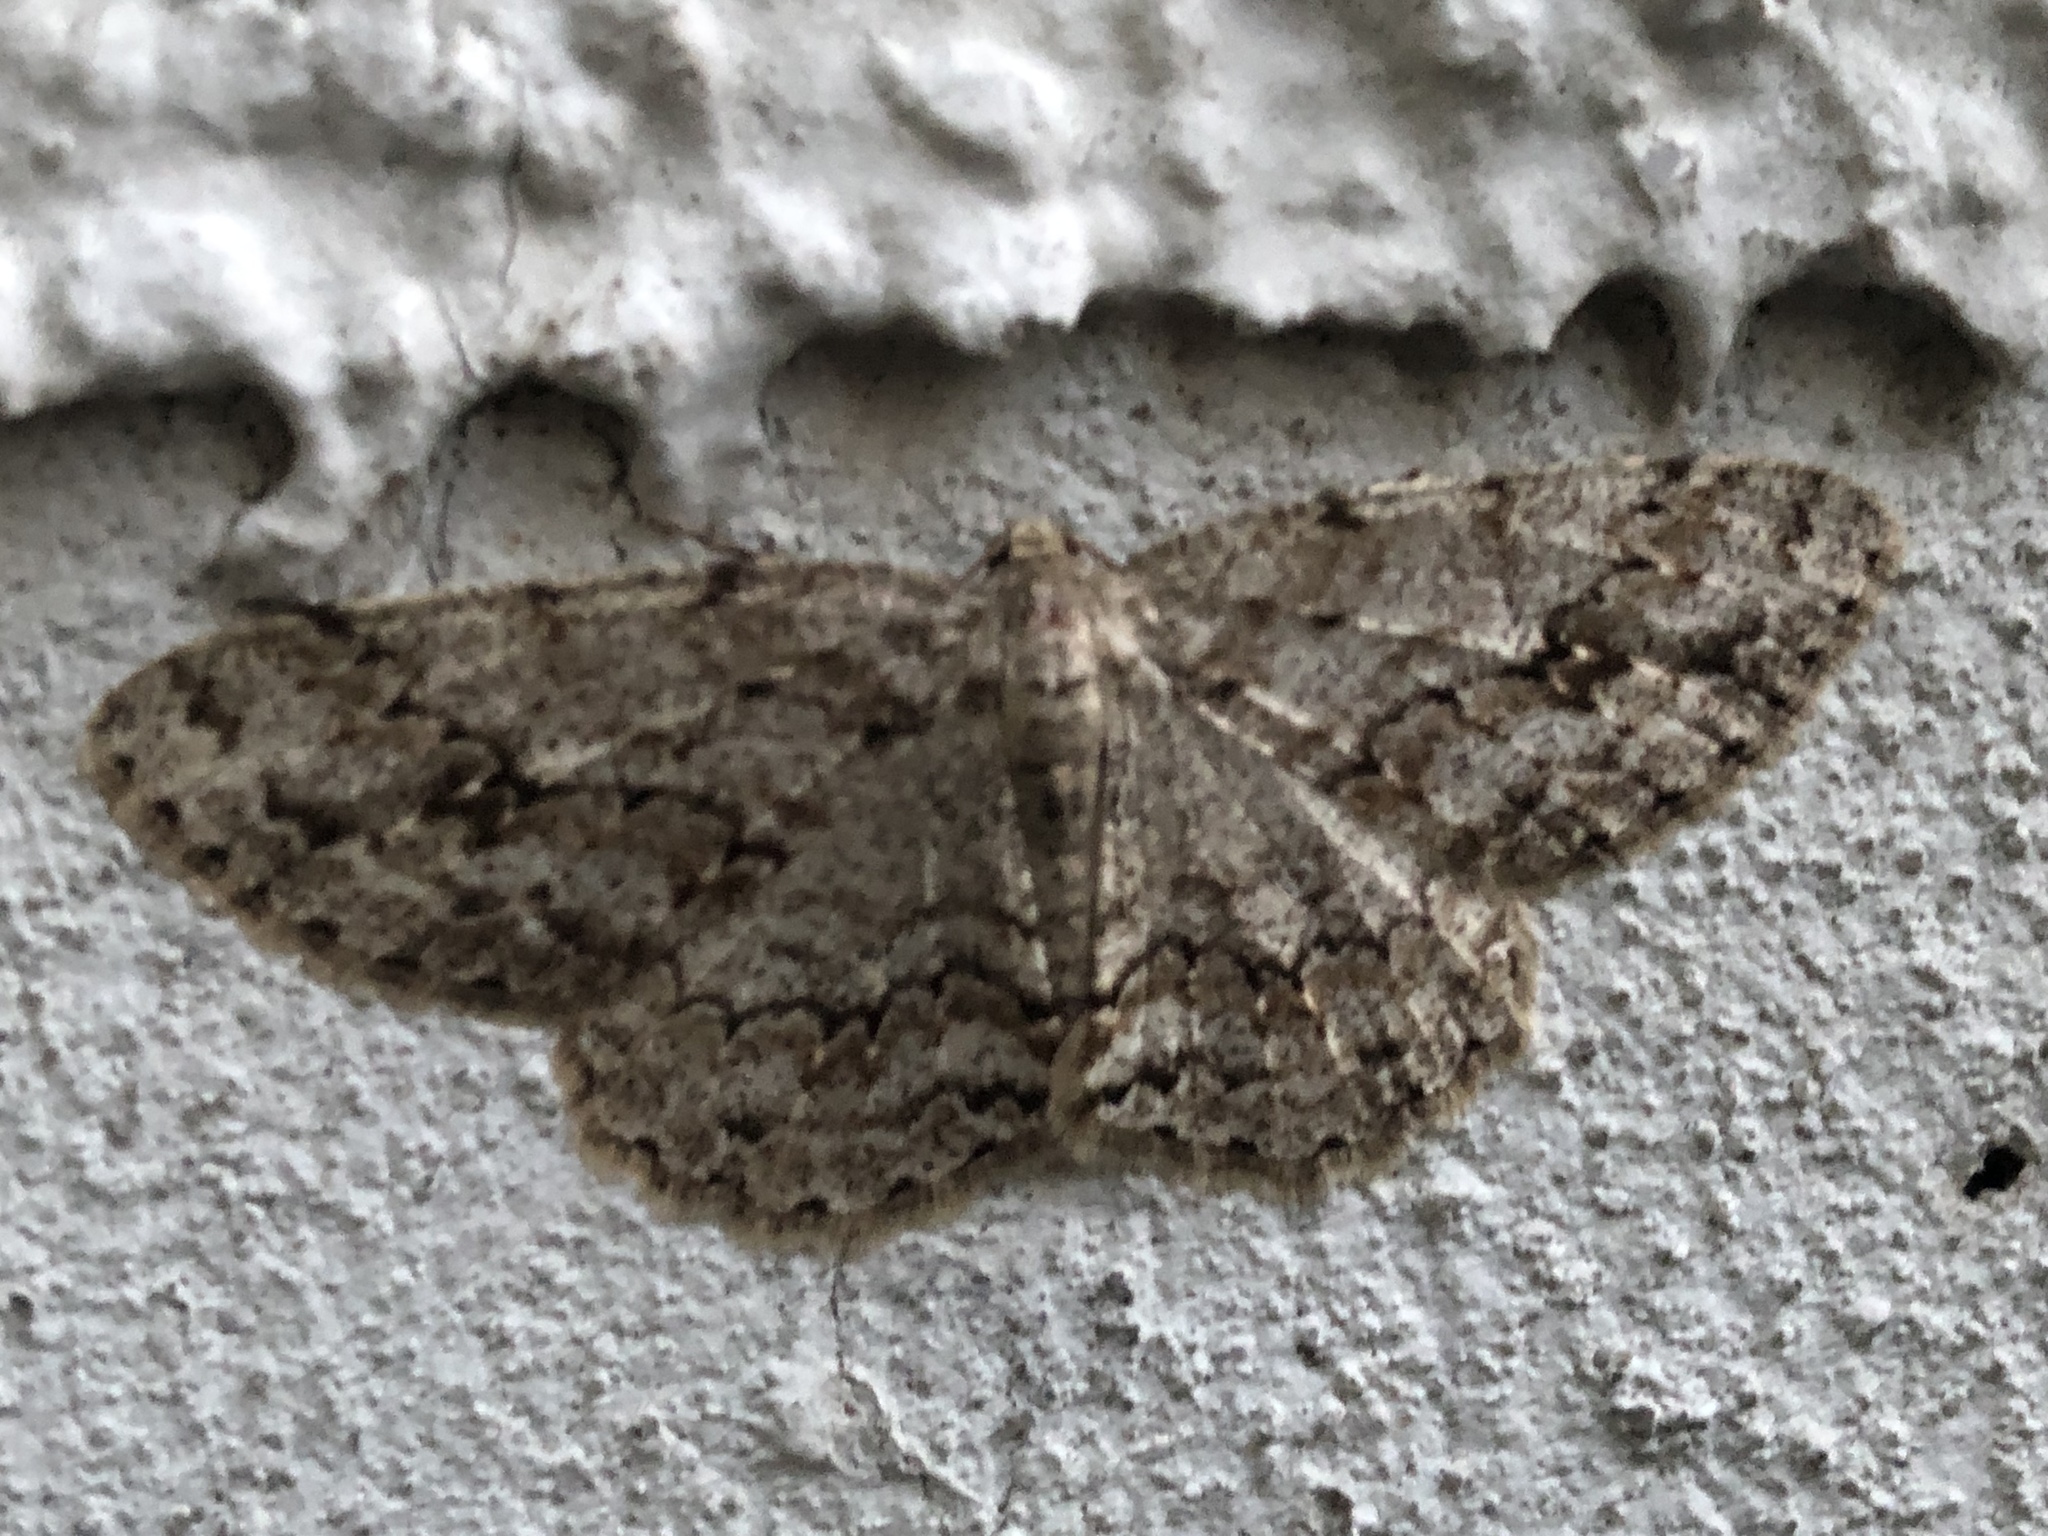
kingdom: Animalia
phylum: Arthropoda
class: Insecta
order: Lepidoptera
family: Geometridae
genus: Ectropis
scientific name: Ectropis crepuscularia
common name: Engrailed
